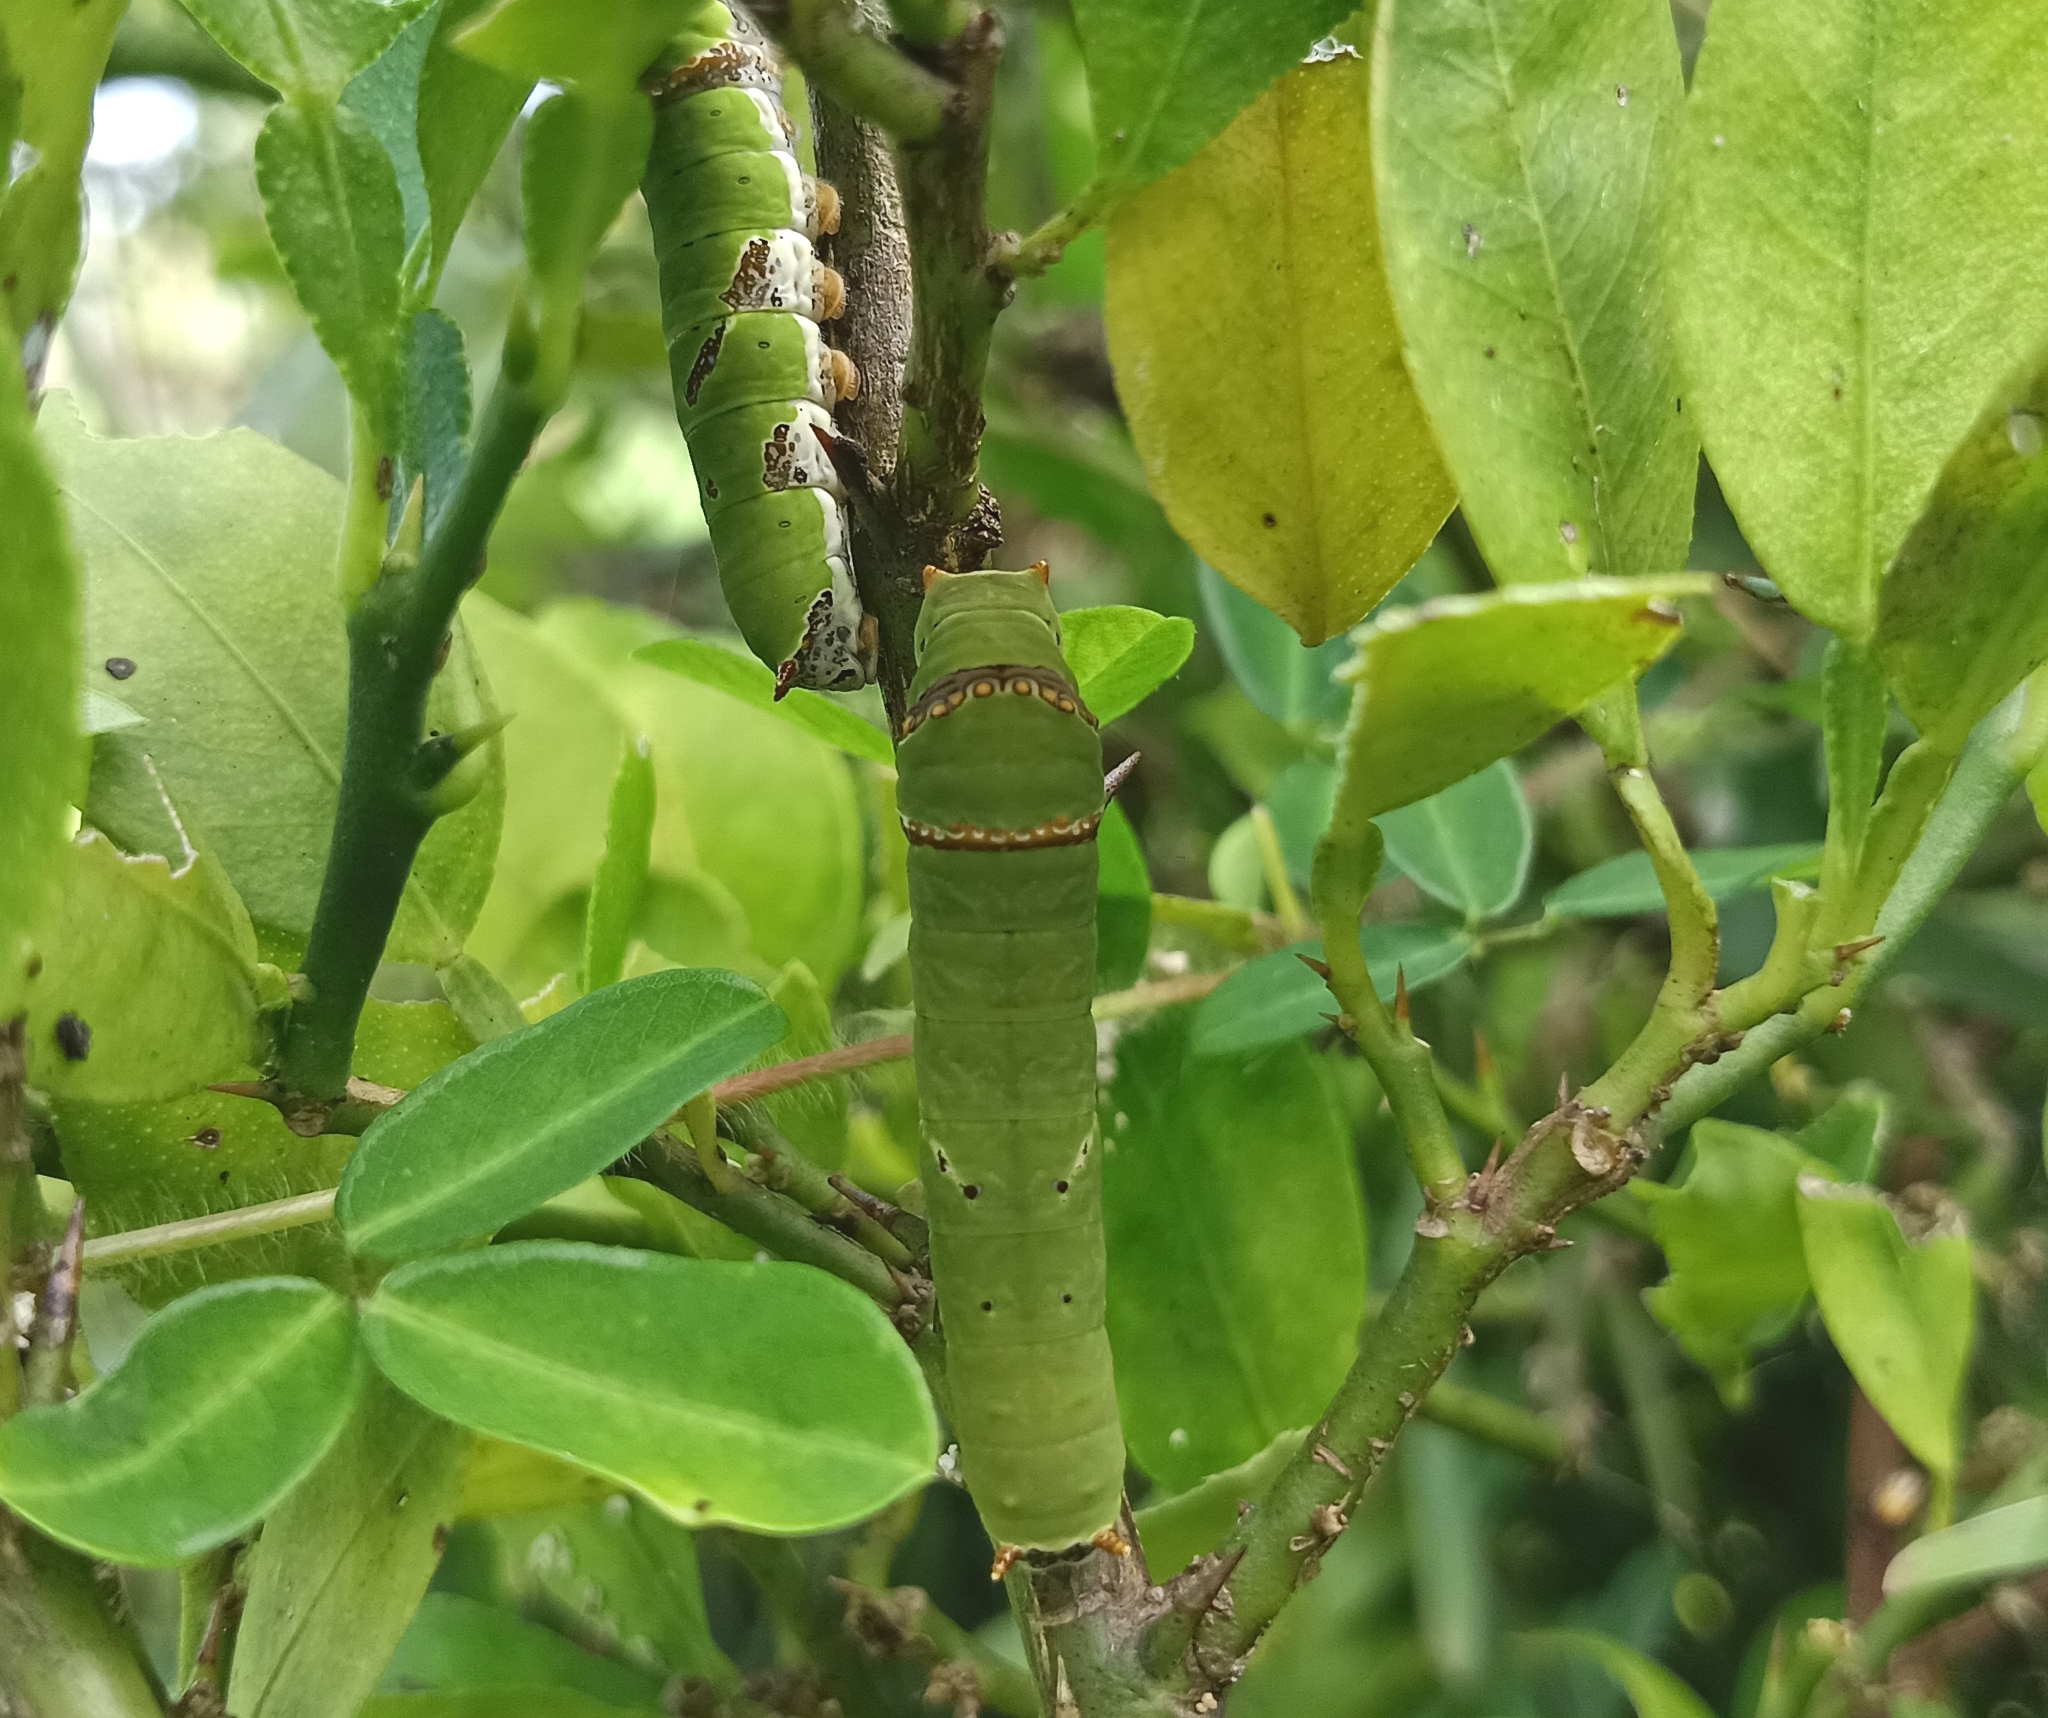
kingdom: Animalia
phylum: Arthropoda
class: Insecta
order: Lepidoptera
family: Papilionidae
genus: Papilio
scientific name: Papilio demoleus
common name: Lime butterfly
